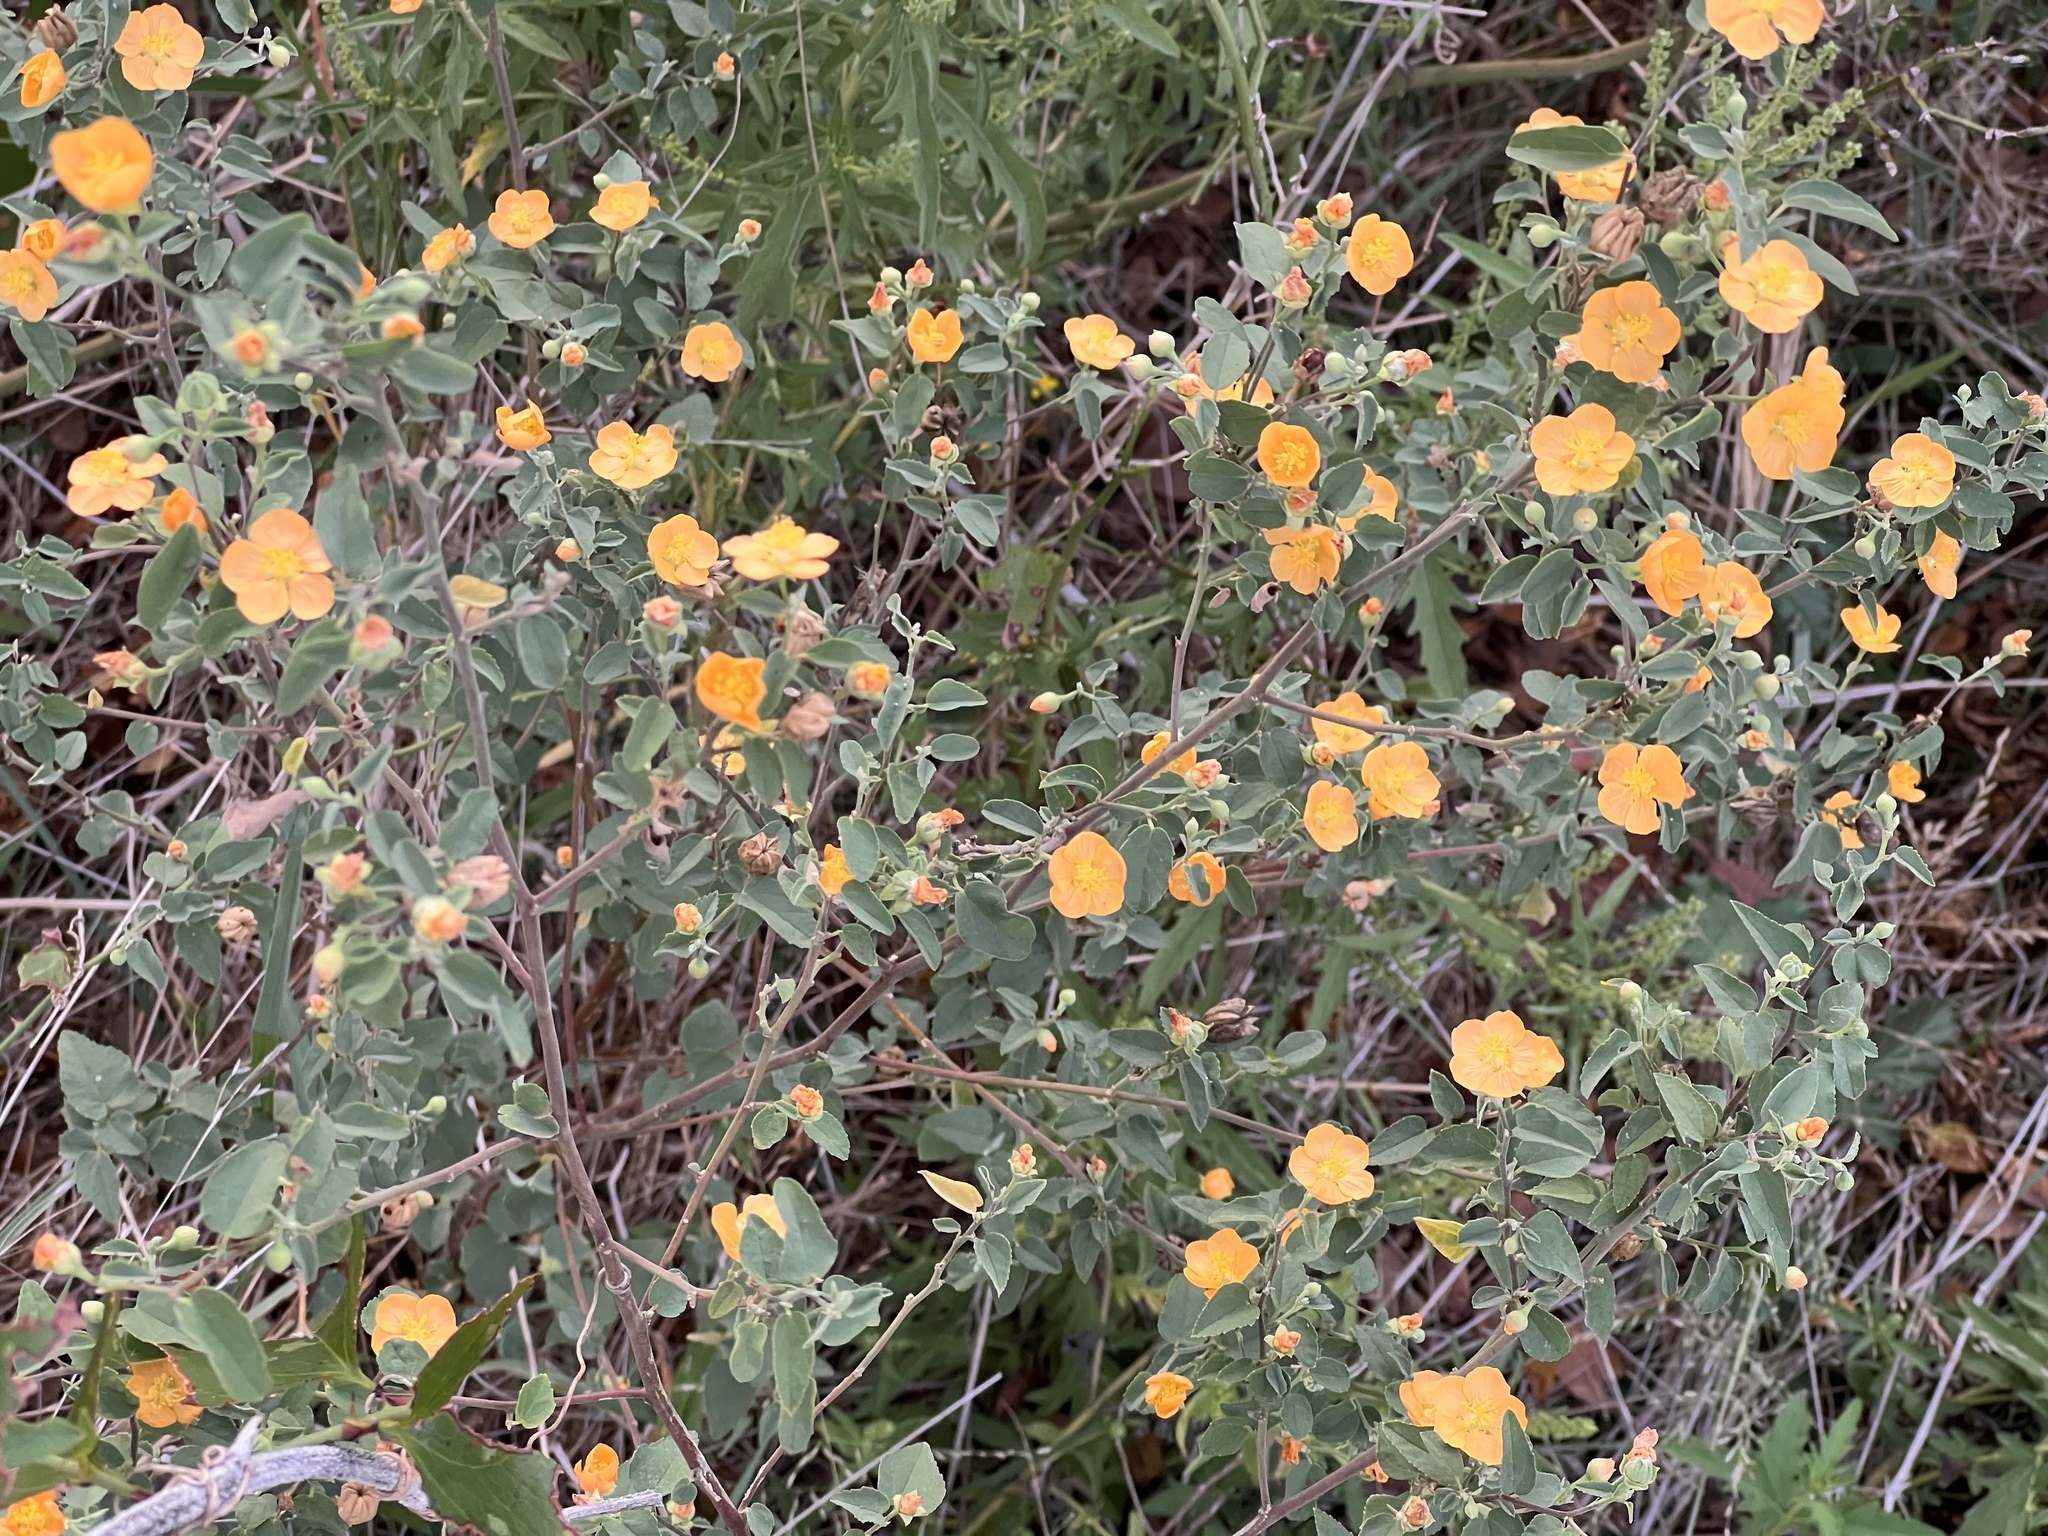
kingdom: Plantae
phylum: Tracheophyta
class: Magnoliopsida
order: Malvales
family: Malvaceae
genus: Abutilon
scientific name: Abutilon fruticosum
